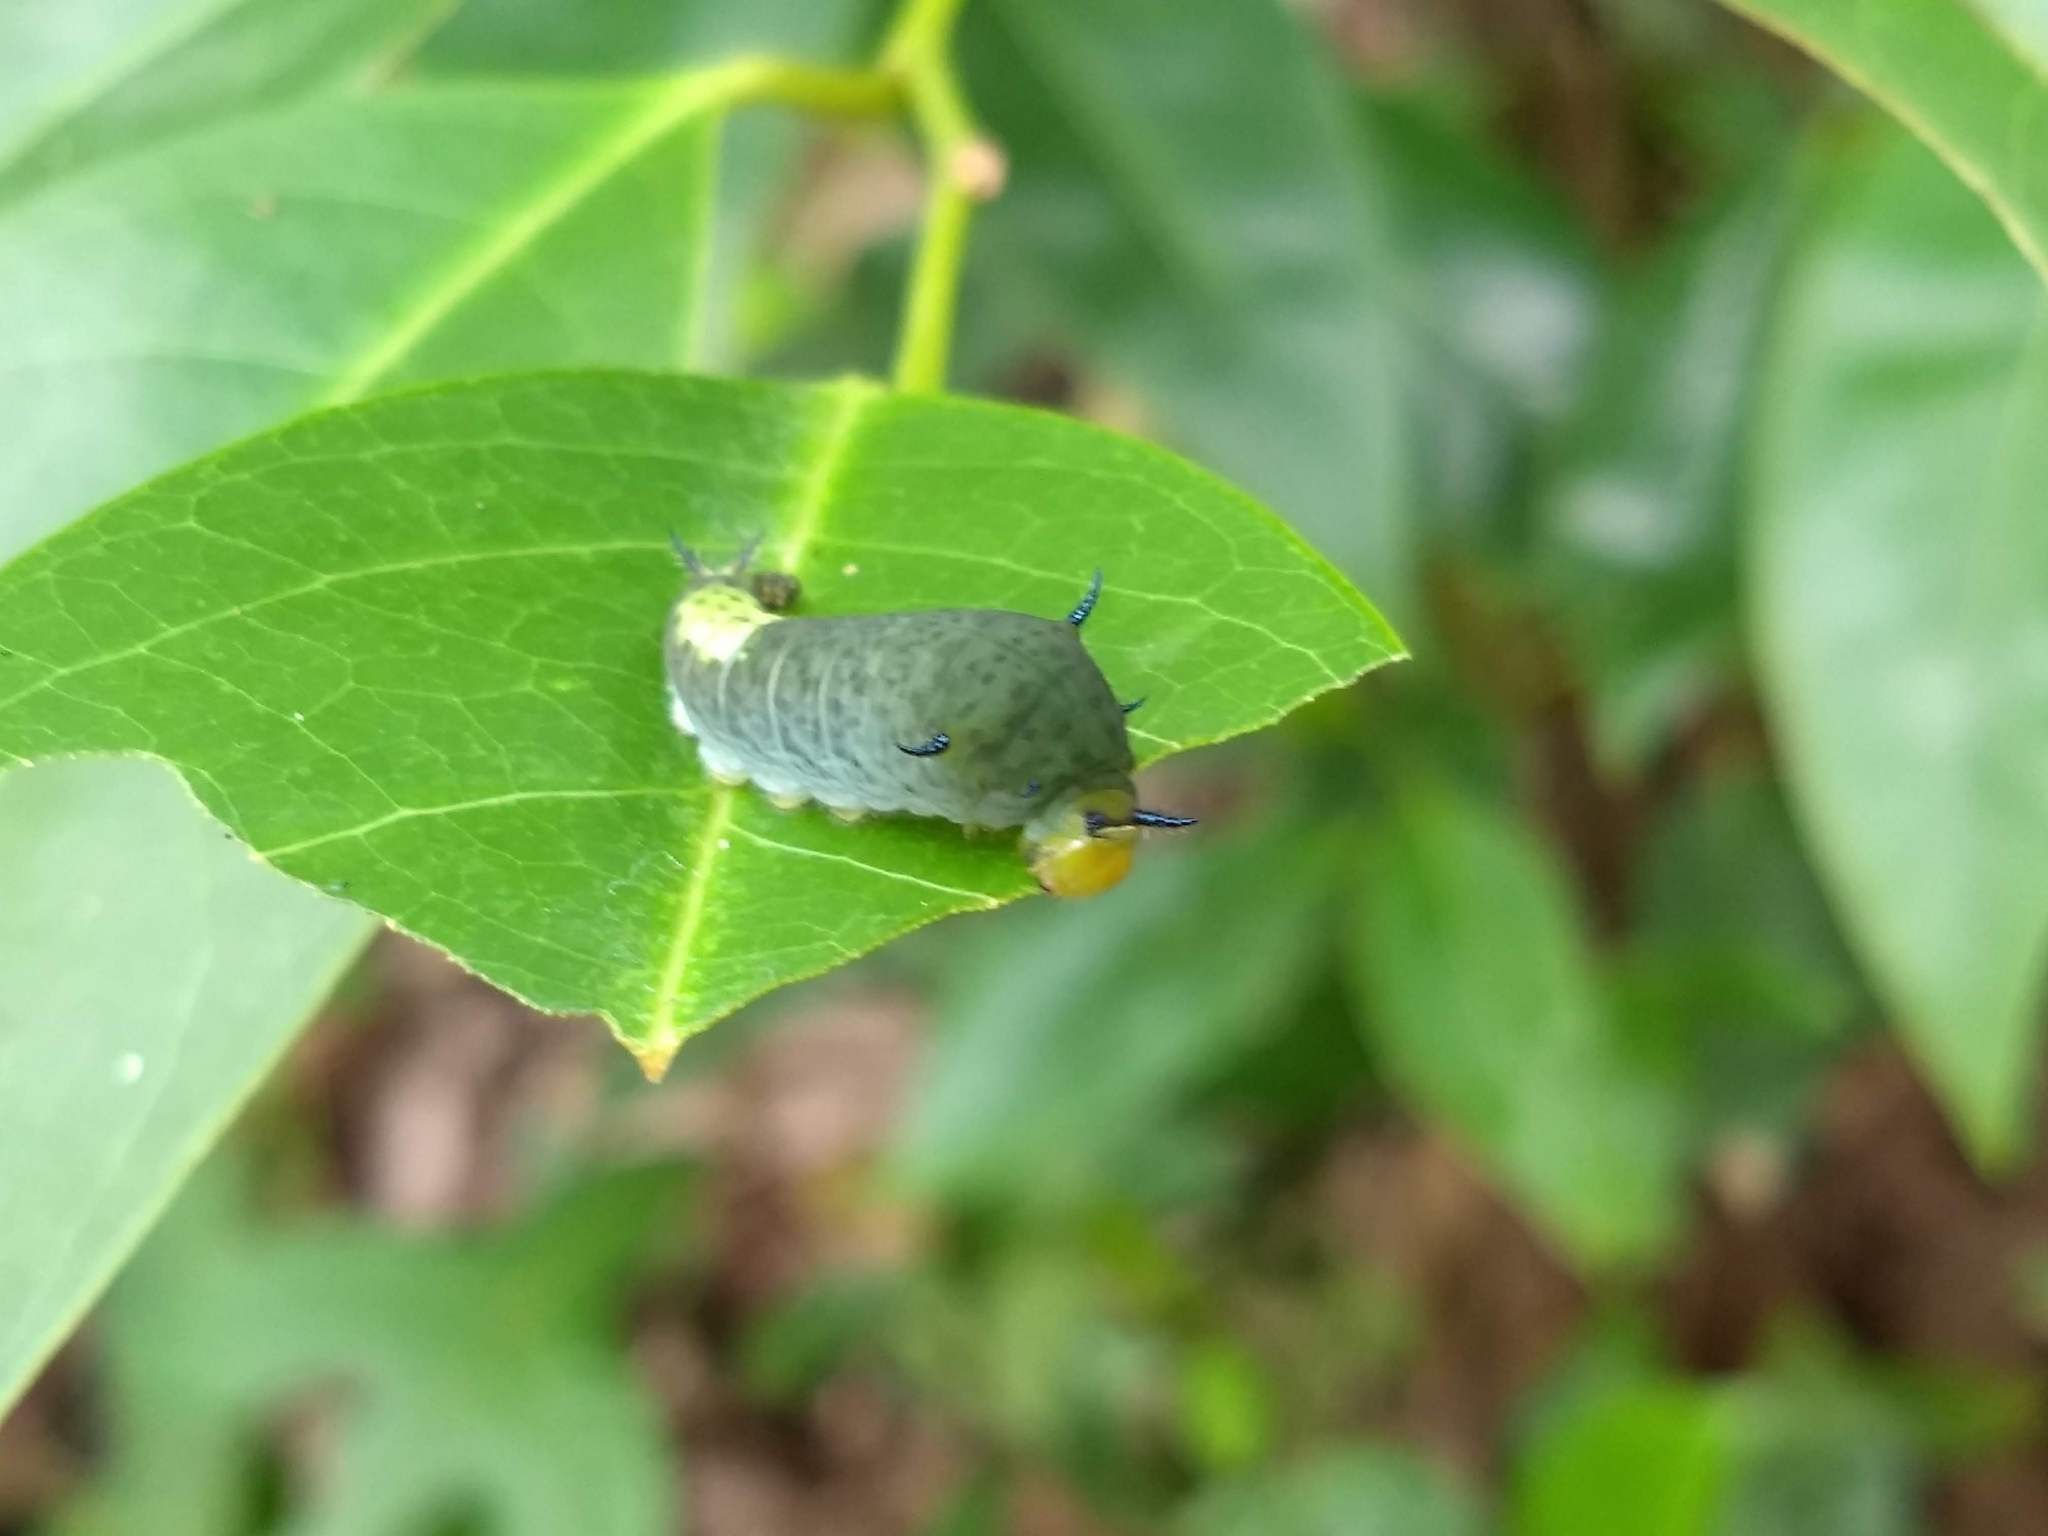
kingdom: Animalia
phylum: Arthropoda
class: Insecta
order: Lepidoptera
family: Papilionidae
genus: Graphium
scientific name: Graphium agamemnon
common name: Tailed jay
